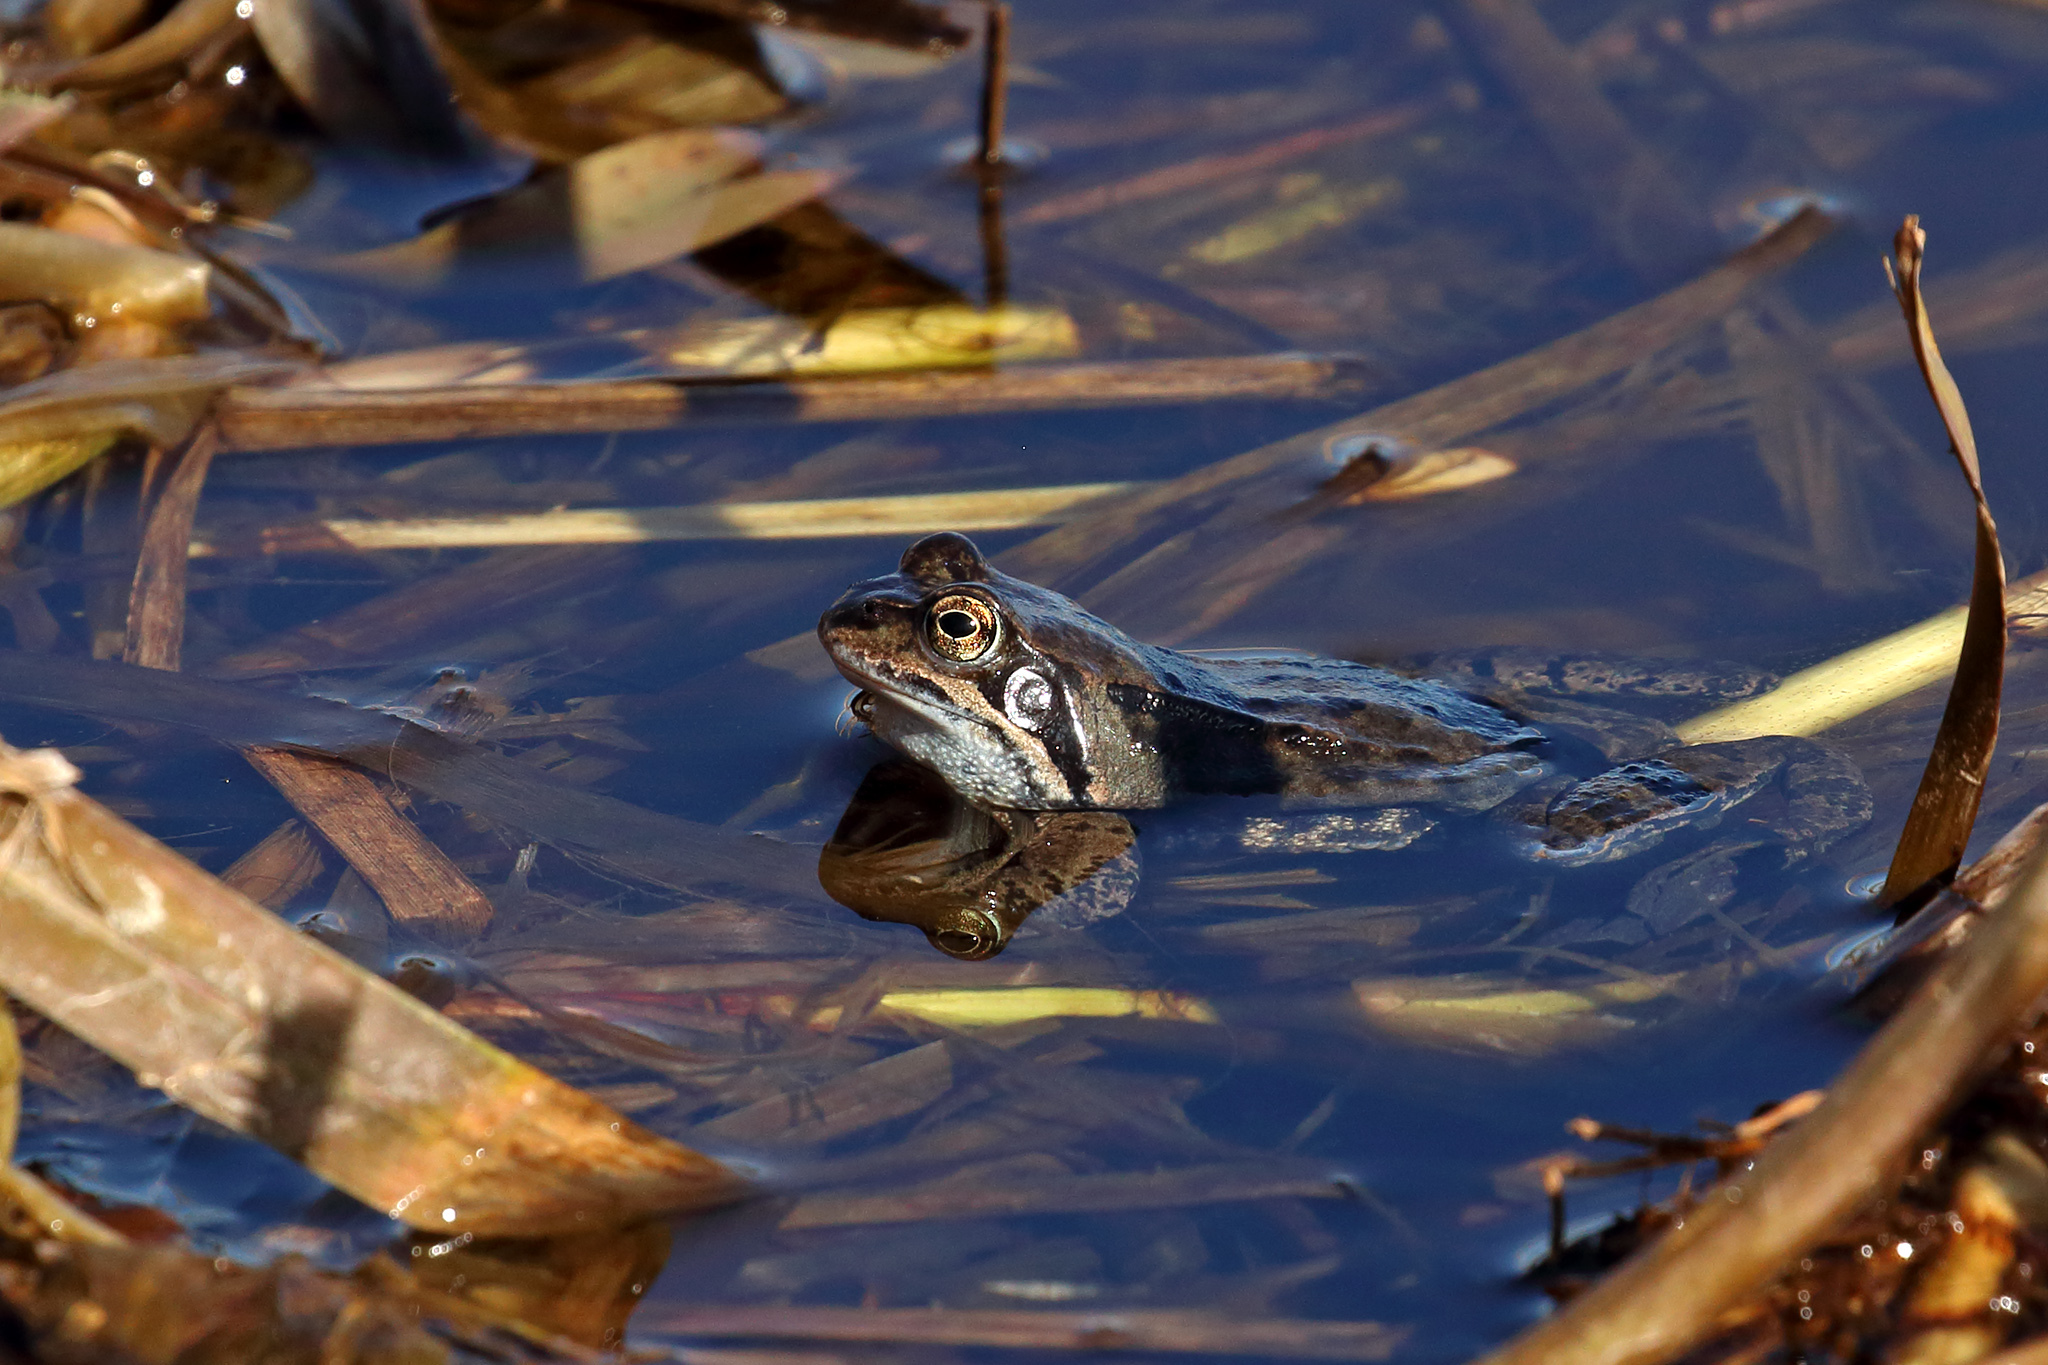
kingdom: Animalia
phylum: Chordata
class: Amphibia
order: Anura
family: Ranidae
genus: Rana
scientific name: Rana temporaria
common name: Common frog
